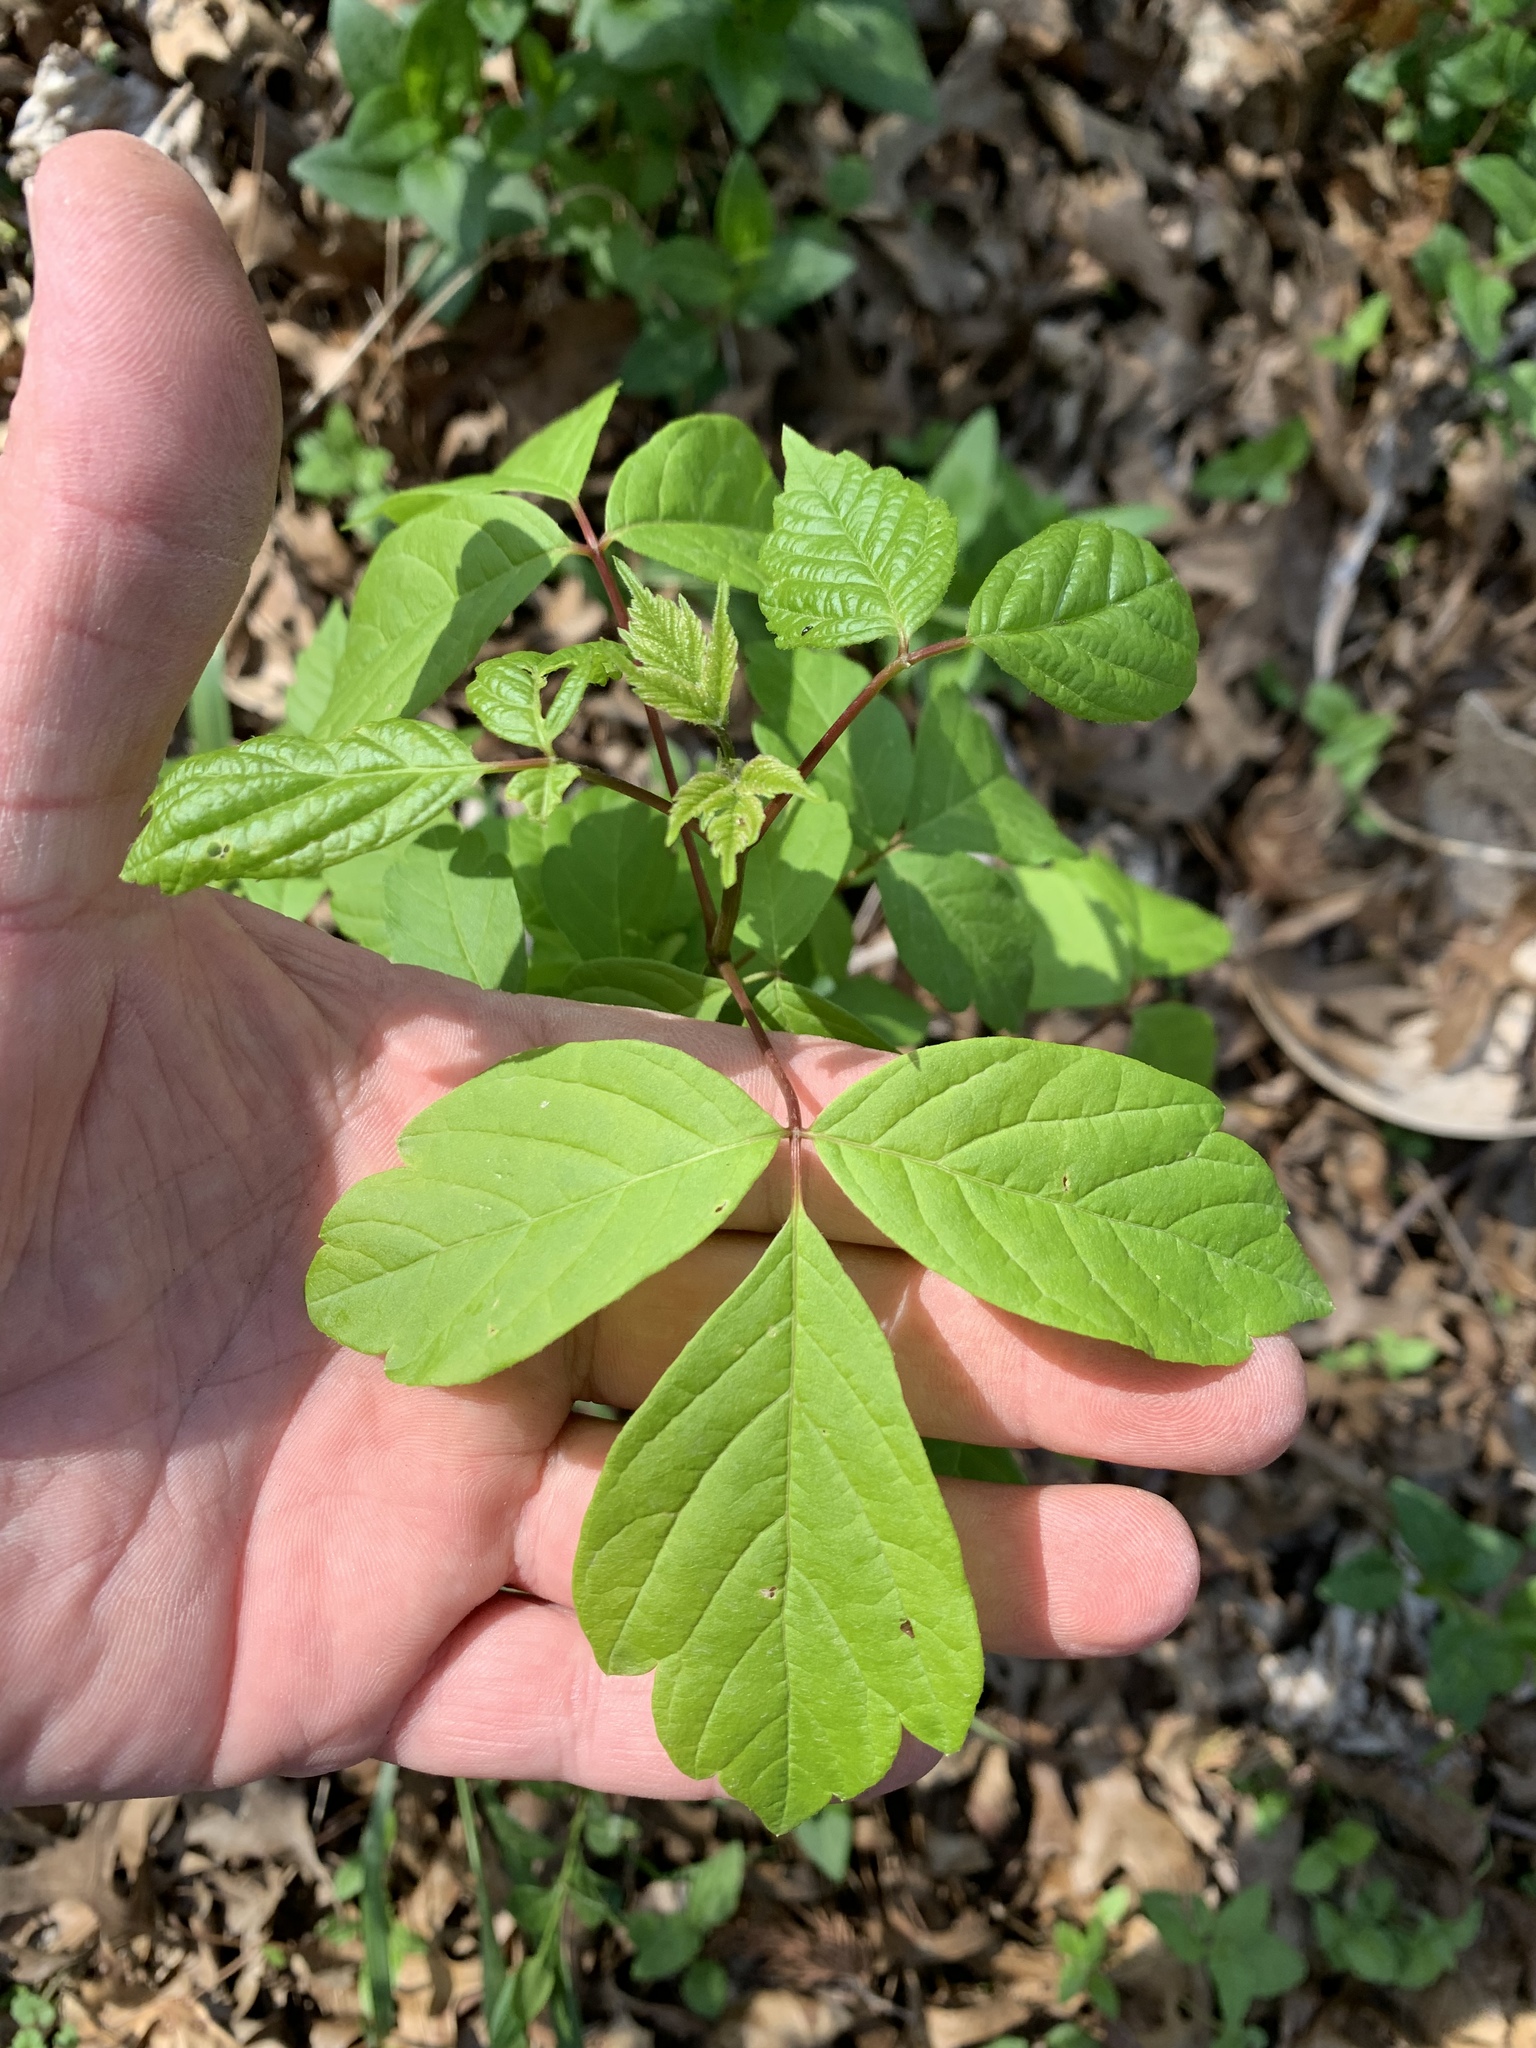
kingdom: Plantae
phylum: Tracheophyta
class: Magnoliopsida
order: Sapindales
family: Sapindaceae
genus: Acer
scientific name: Acer negundo
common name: Ashleaf maple
